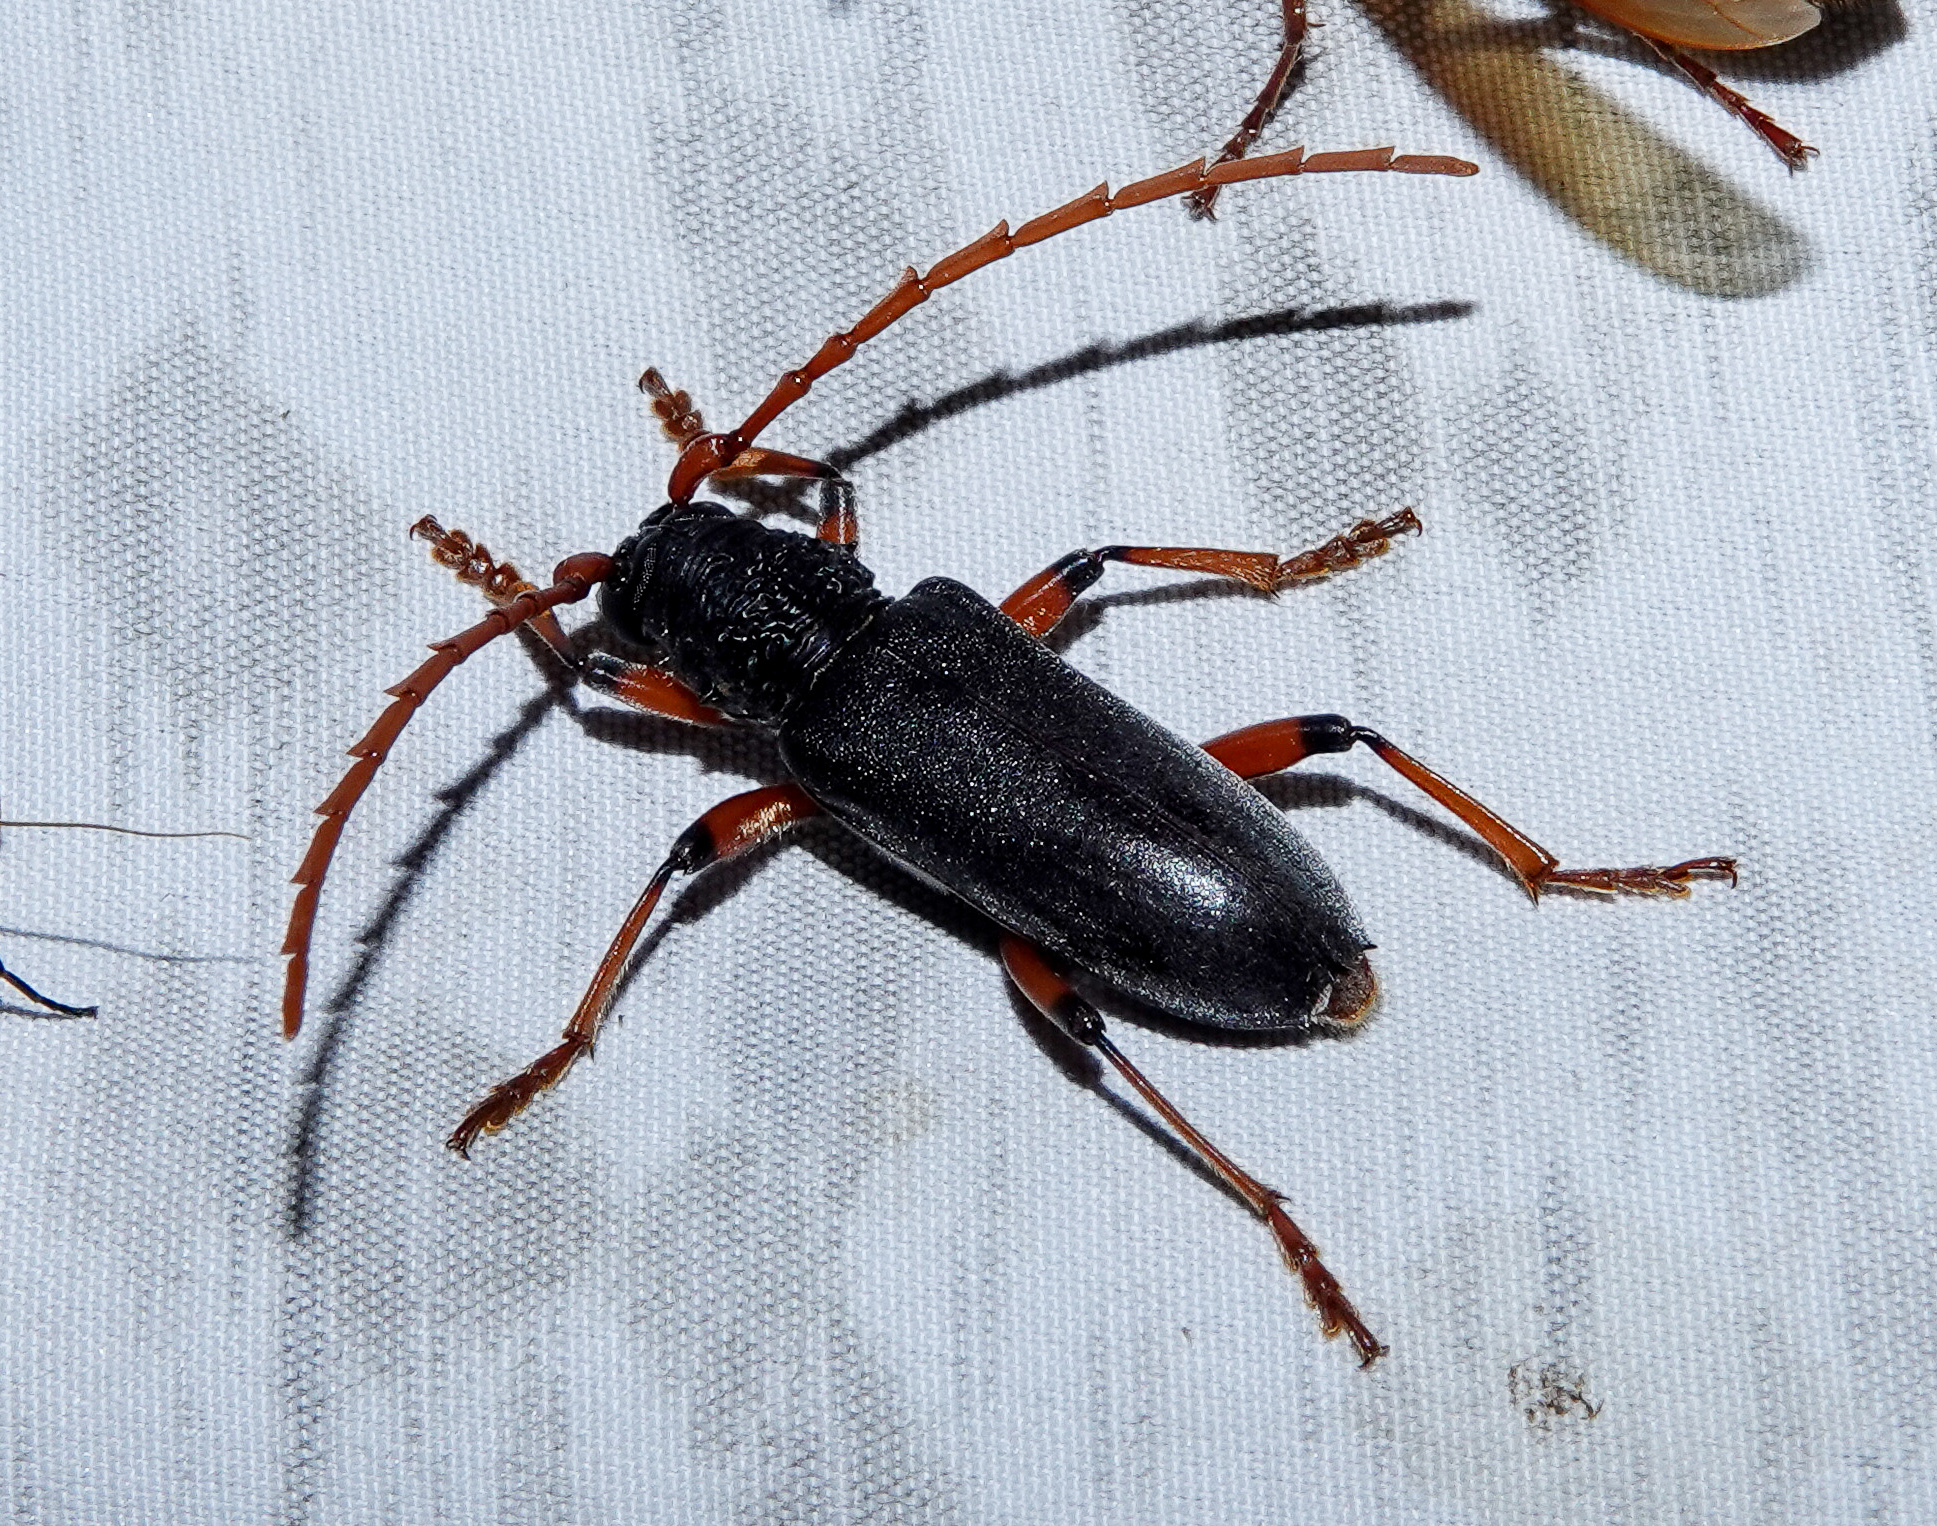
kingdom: Animalia
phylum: Arthropoda
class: Insecta
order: Coleoptera
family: Cerambycidae
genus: Neoplocaederus
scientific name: Neoplocaederus ruficornis
